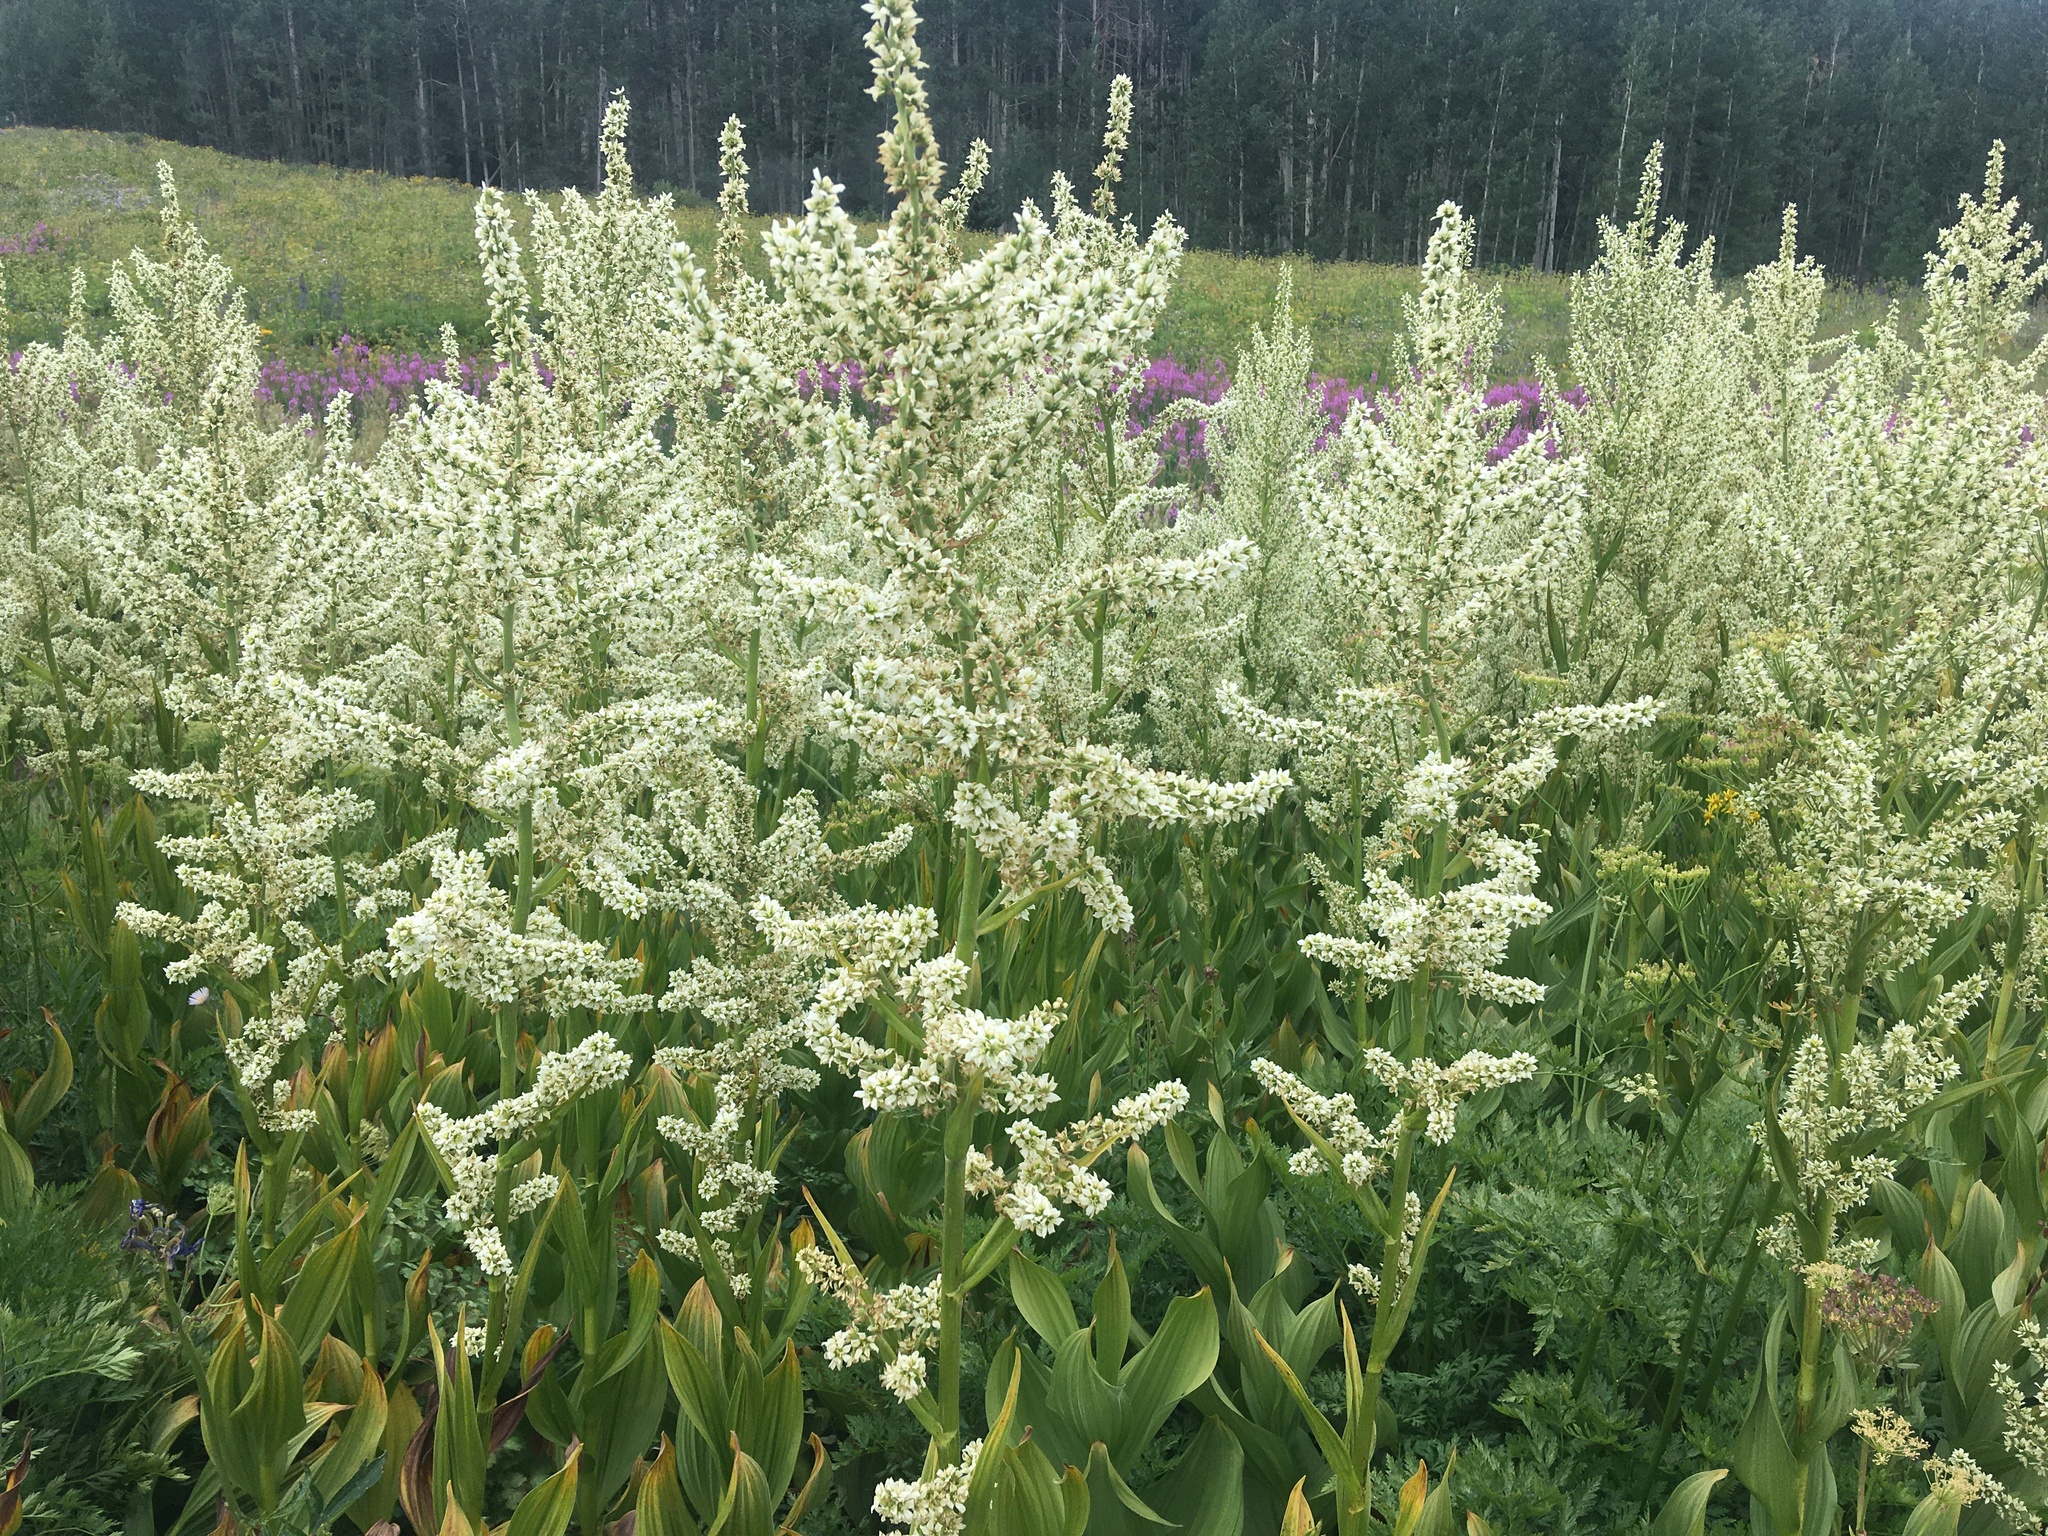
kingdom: Plantae
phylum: Tracheophyta
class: Liliopsida
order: Liliales
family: Melanthiaceae
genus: Veratrum
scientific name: Veratrum californicum
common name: California veratrum
